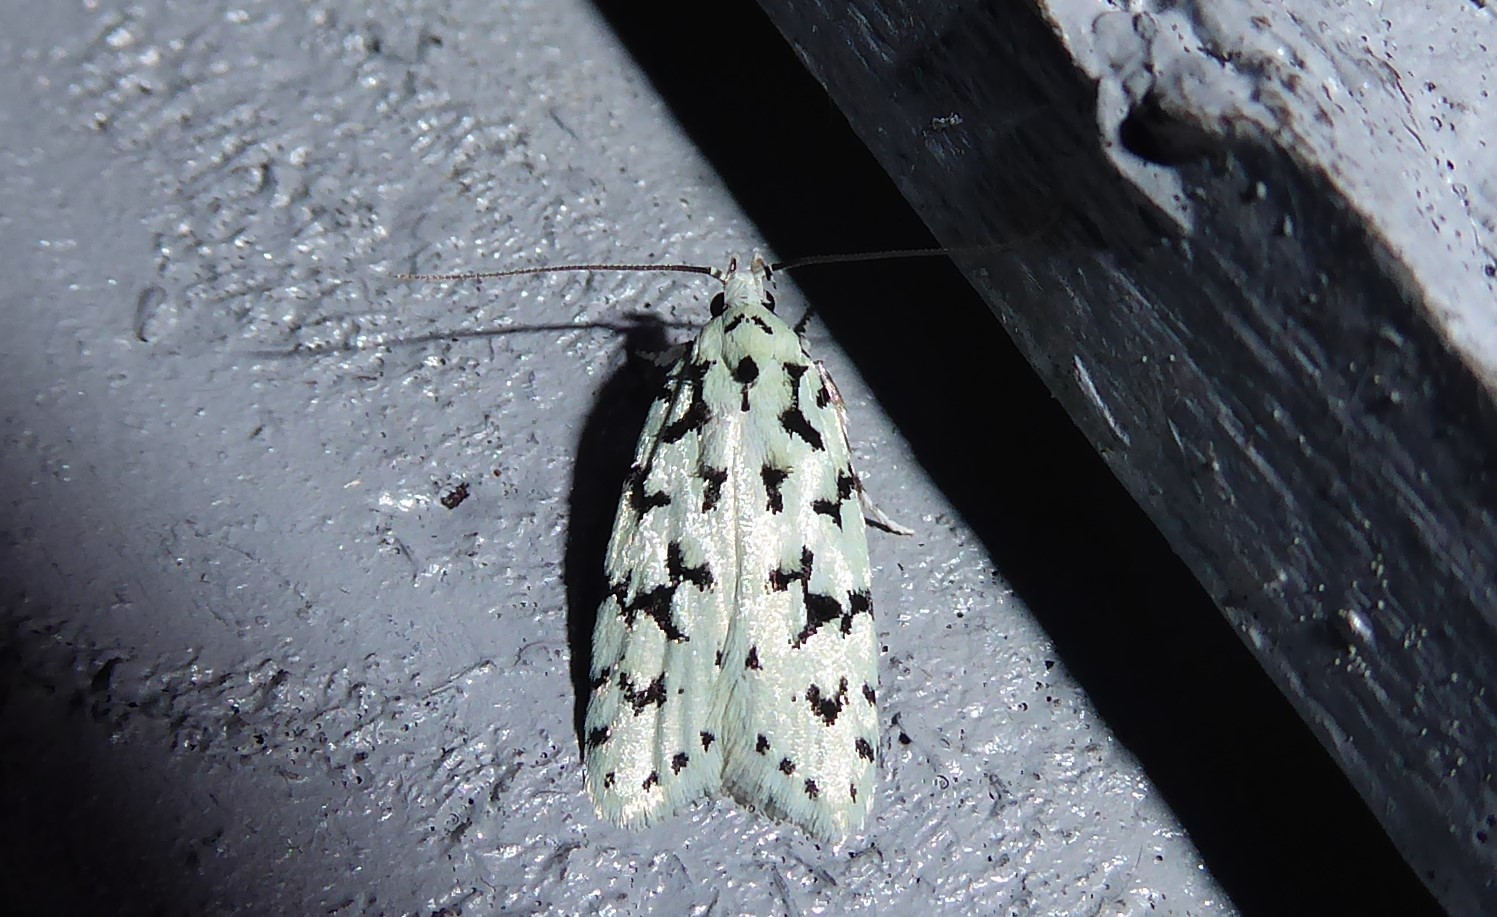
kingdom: Animalia
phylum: Arthropoda
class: Insecta
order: Lepidoptera
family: Oecophoridae
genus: Izatha
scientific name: Izatha huttoni
